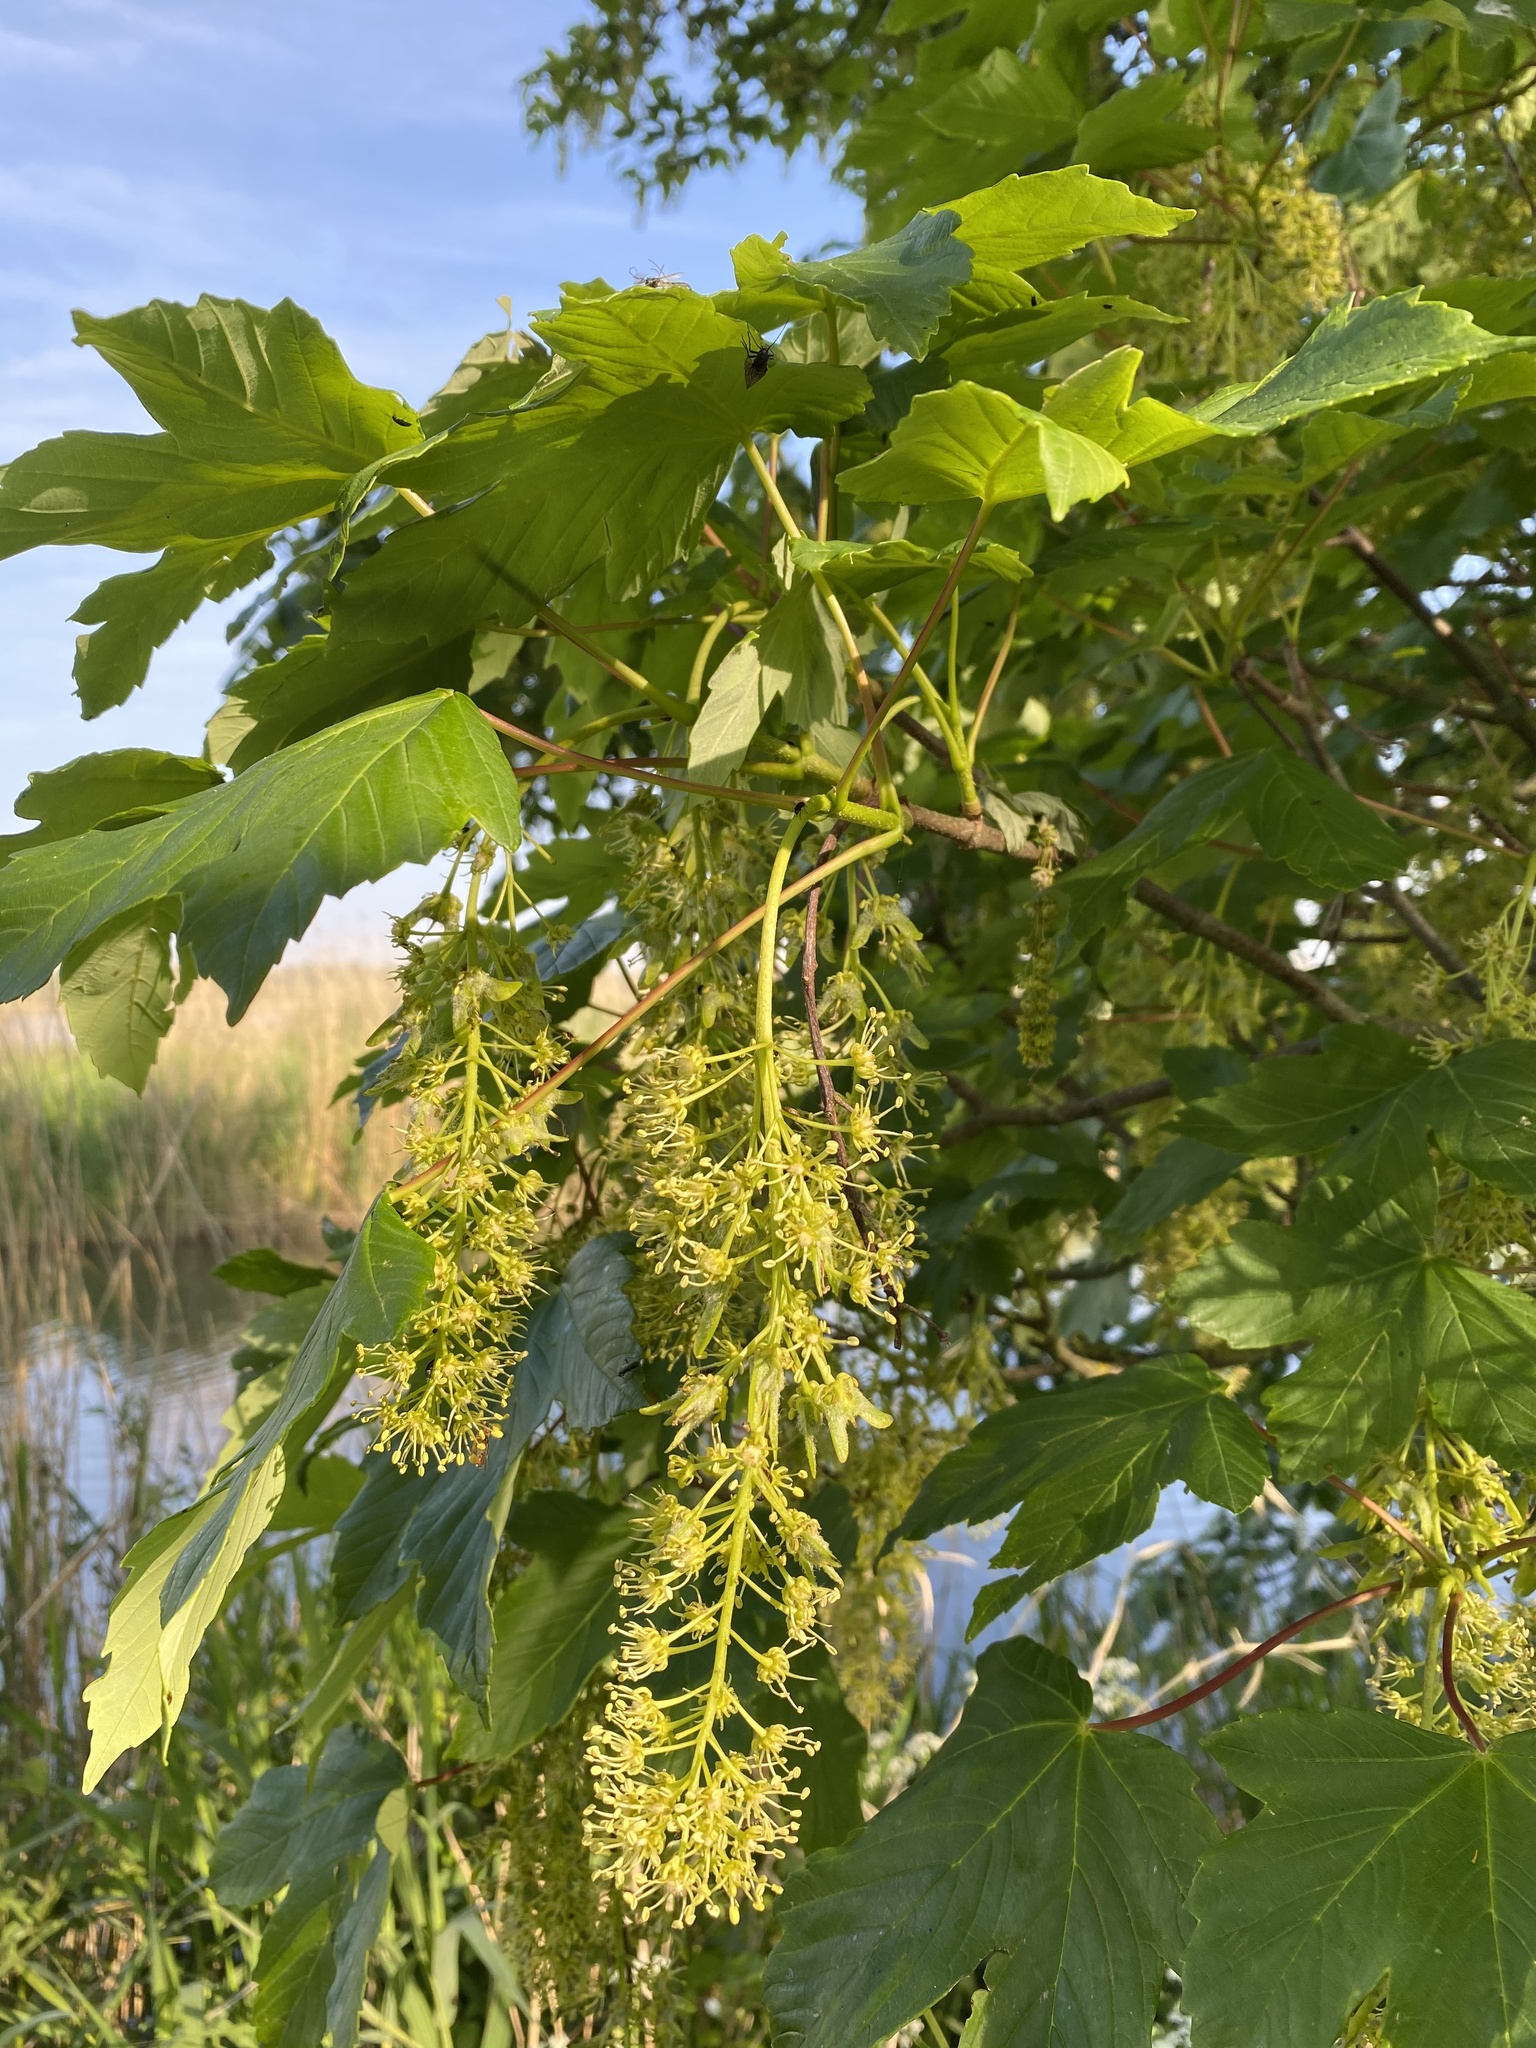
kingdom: Plantae
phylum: Tracheophyta
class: Magnoliopsida
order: Sapindales
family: Sapindaceae
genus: Acer
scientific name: Acer pseudoplatanus
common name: Sycamore
